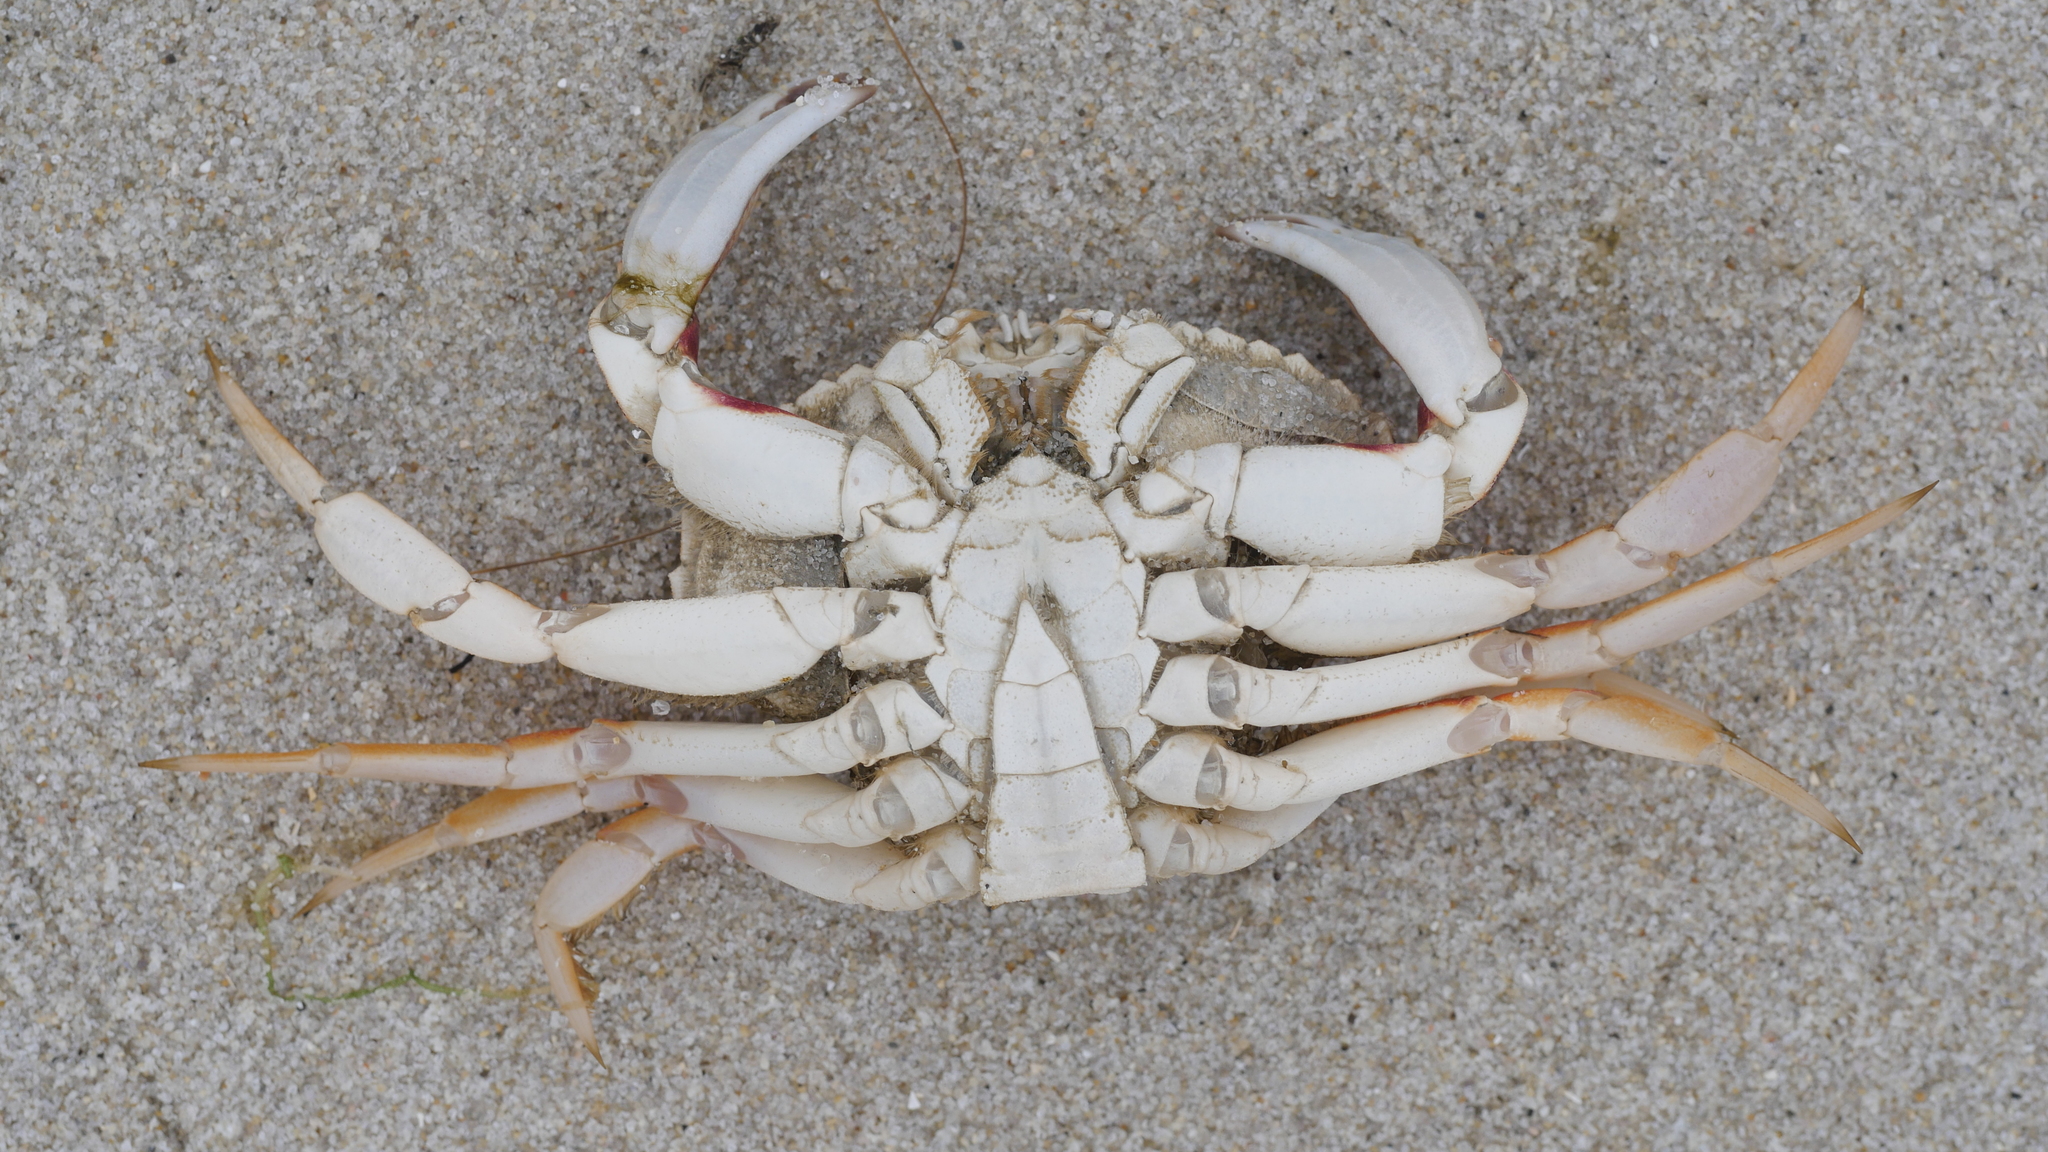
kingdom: Animalia
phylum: Arthropoda
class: Malacostraca
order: Decapoda
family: Cancridae
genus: Cancer
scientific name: Cancer irroratus
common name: Atlantic rock crab
